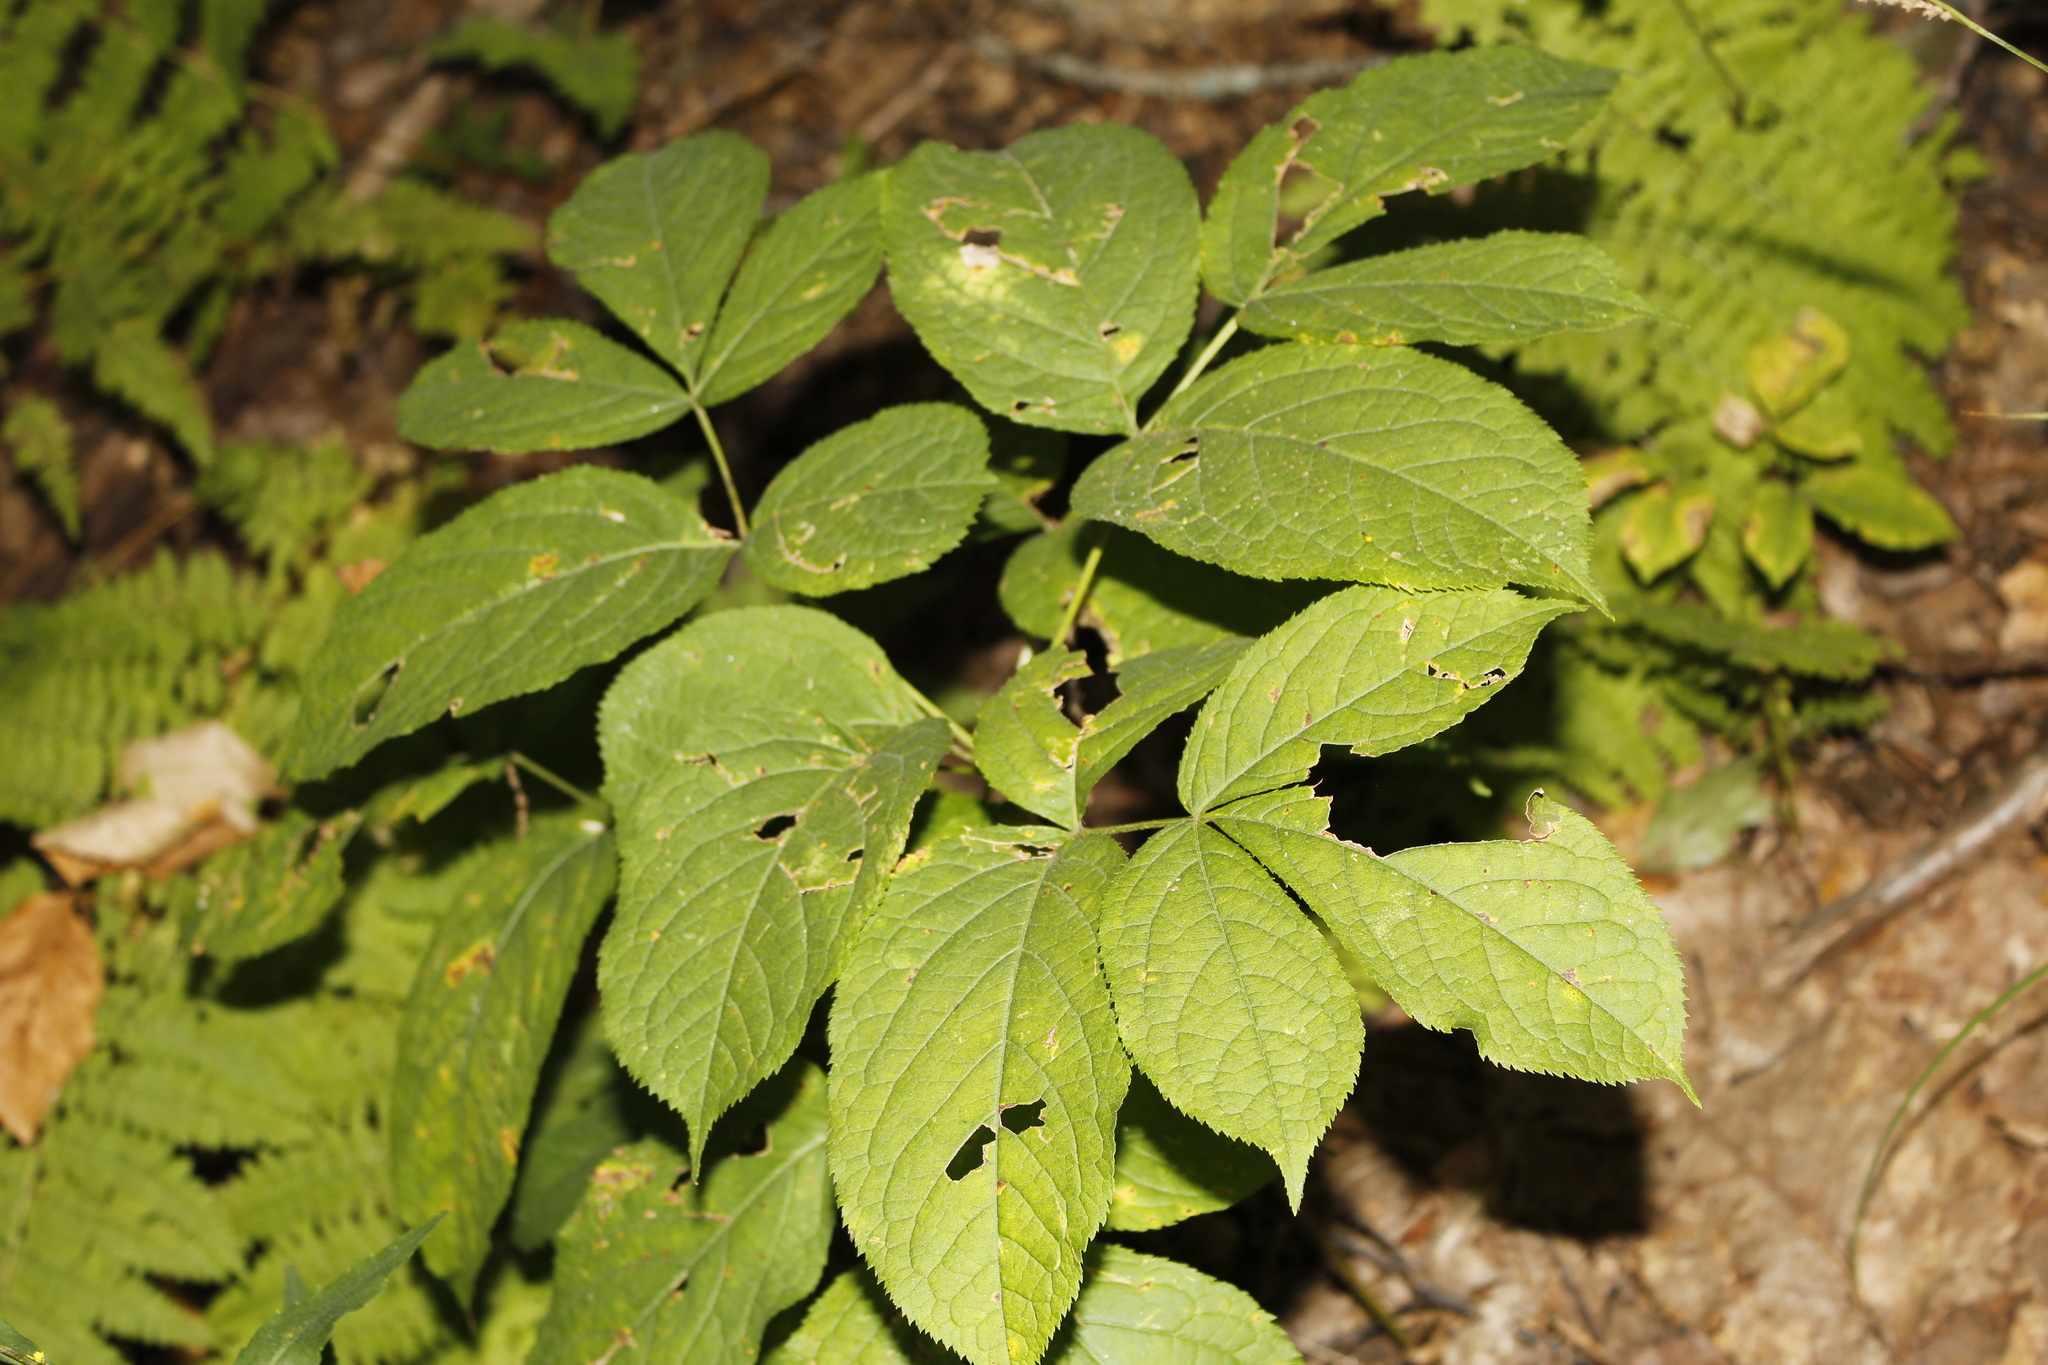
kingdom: Plantae
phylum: Tracheophyta
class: Magnoliopsida
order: Apiales
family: Araliaceae
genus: Aralia
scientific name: Aralia nudicaulis
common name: Wild sarsaparilla
